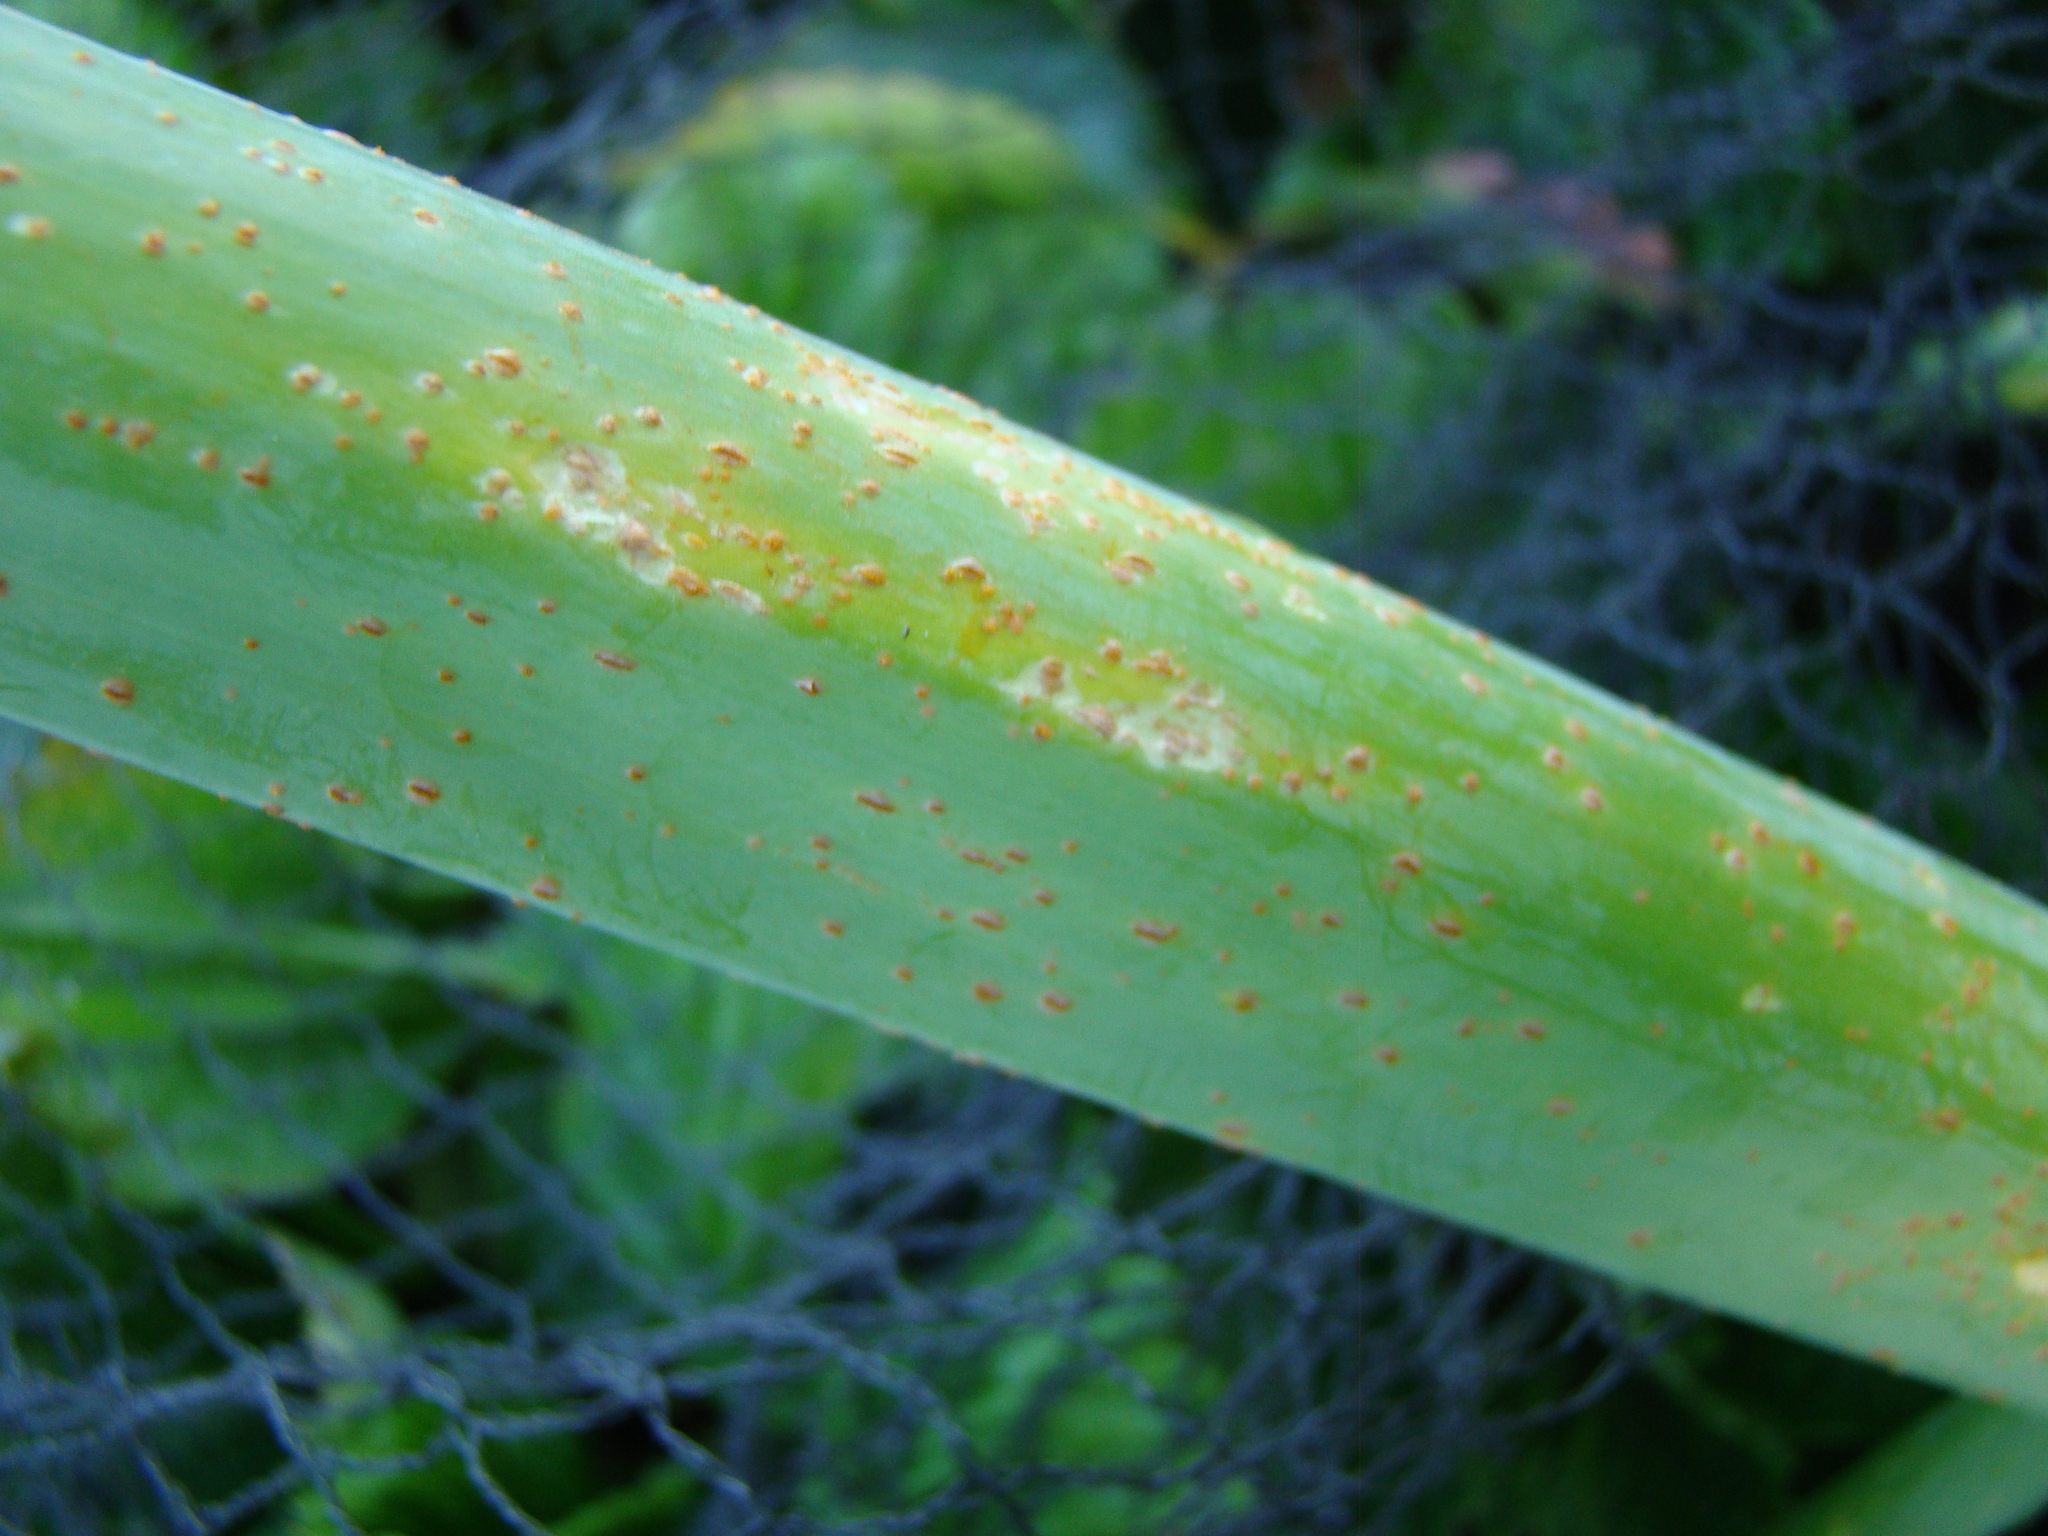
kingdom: Fungi
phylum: Basidiomycota
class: Pucciniomycetes
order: Pucciniales
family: Pucciniaceae
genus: Puccinia
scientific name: Puccinia allii
